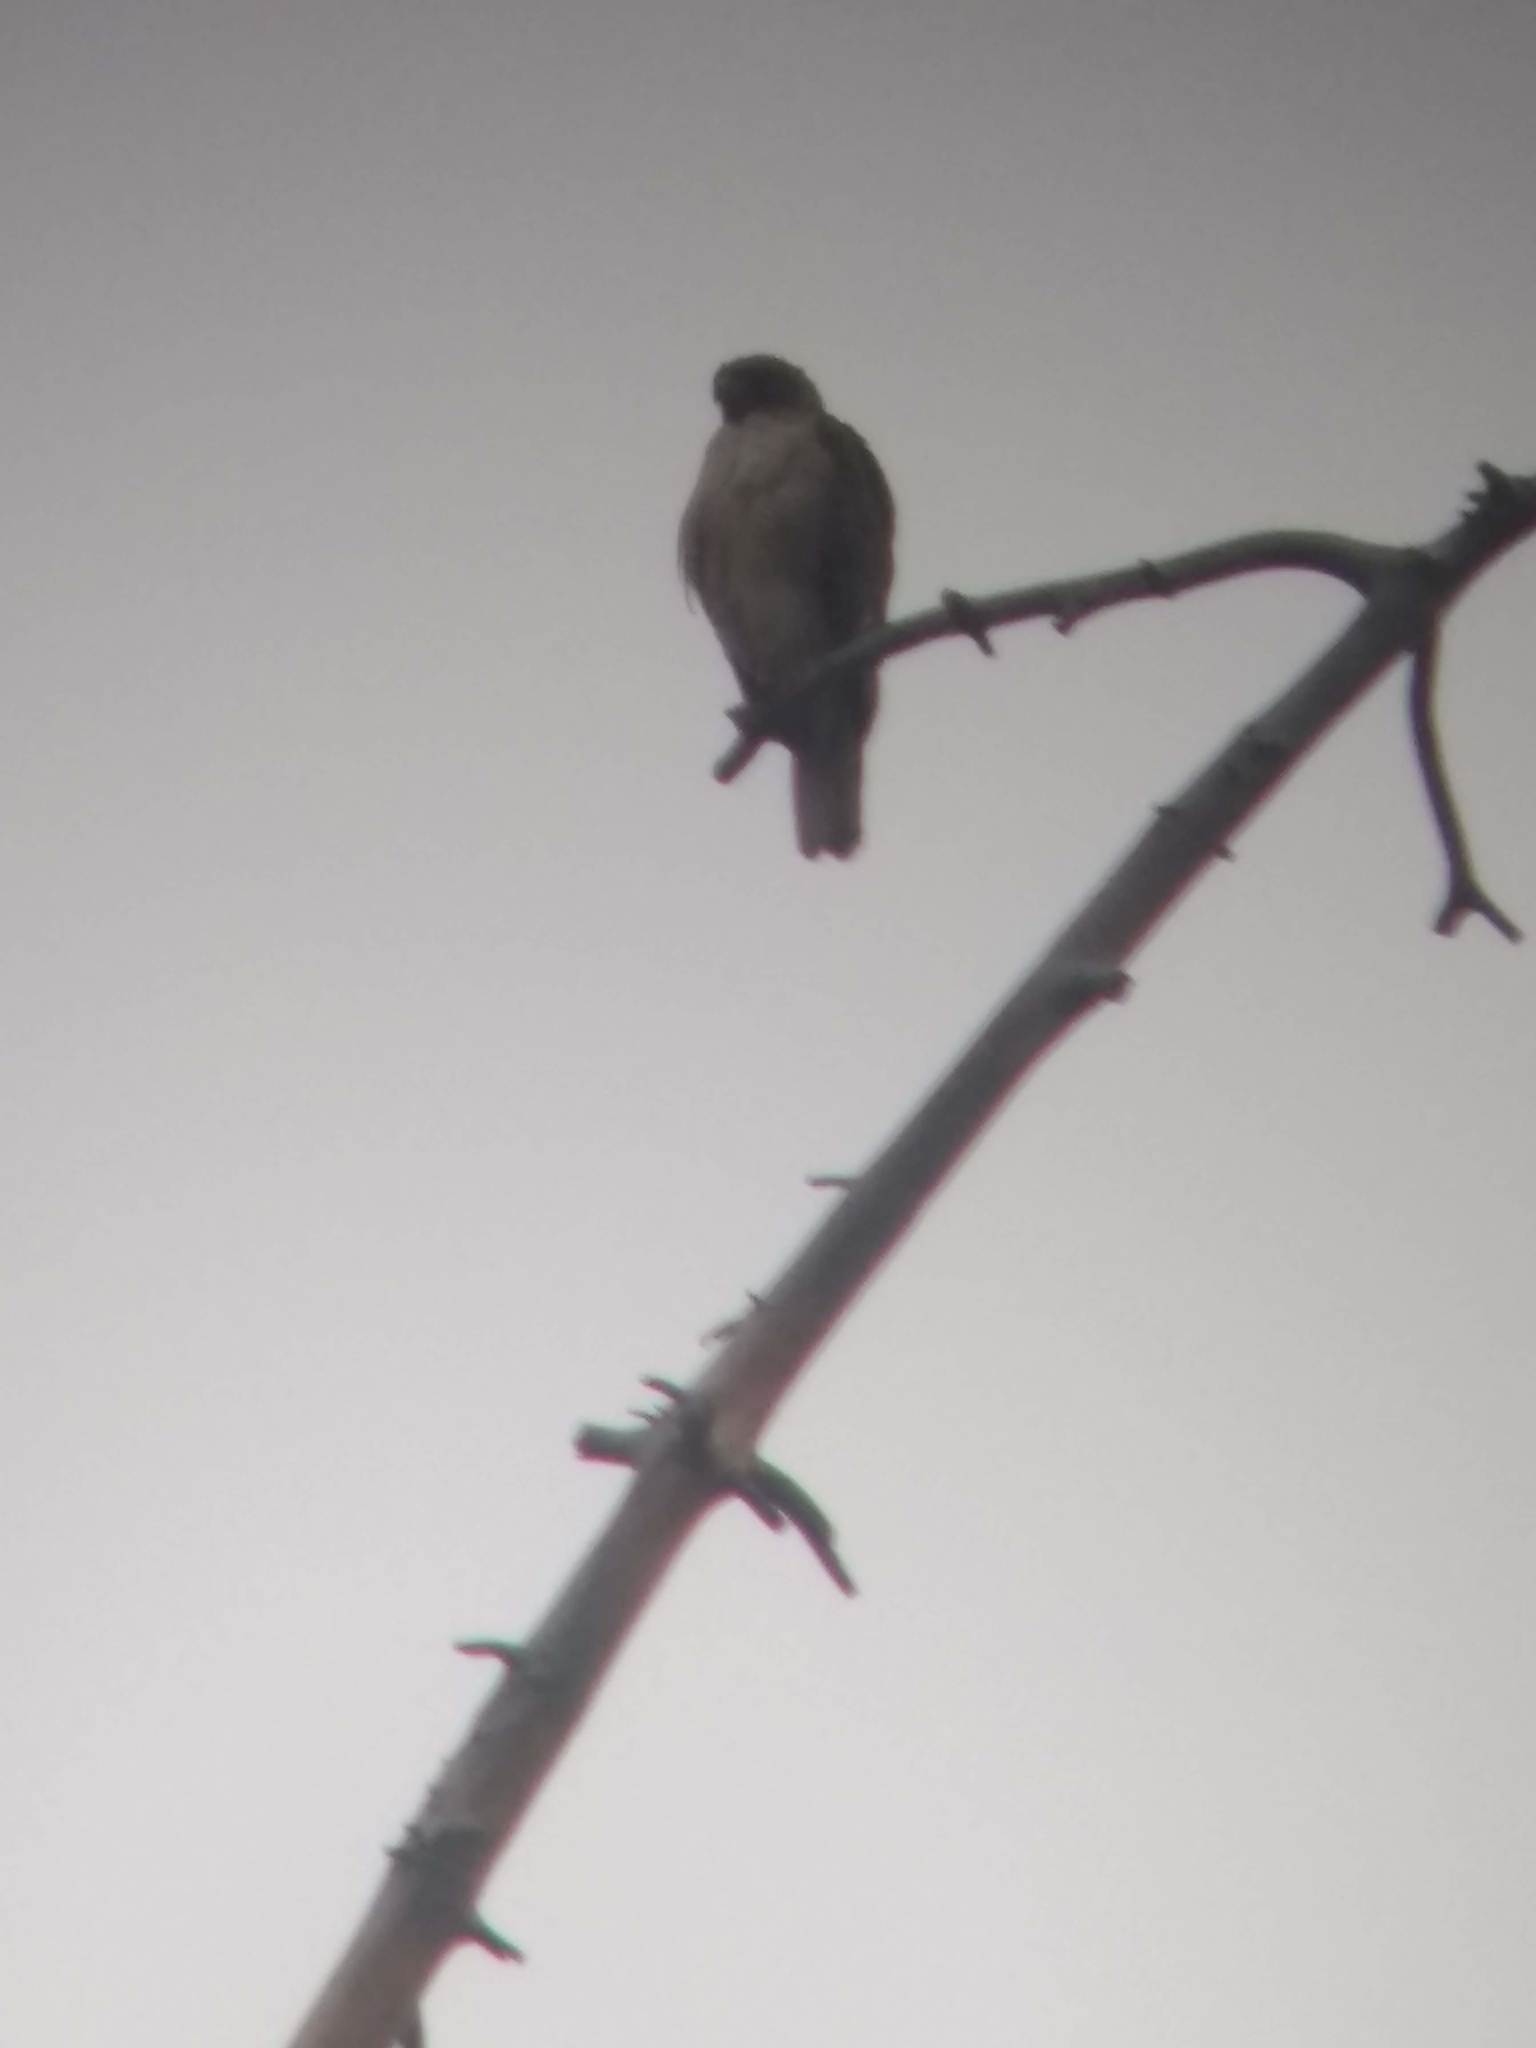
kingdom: Animalia
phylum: Chordata
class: Aves
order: Accipitriformes
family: Accipitridae
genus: Buteo
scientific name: Buteo jamaicensis
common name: Red-tailed hawk
